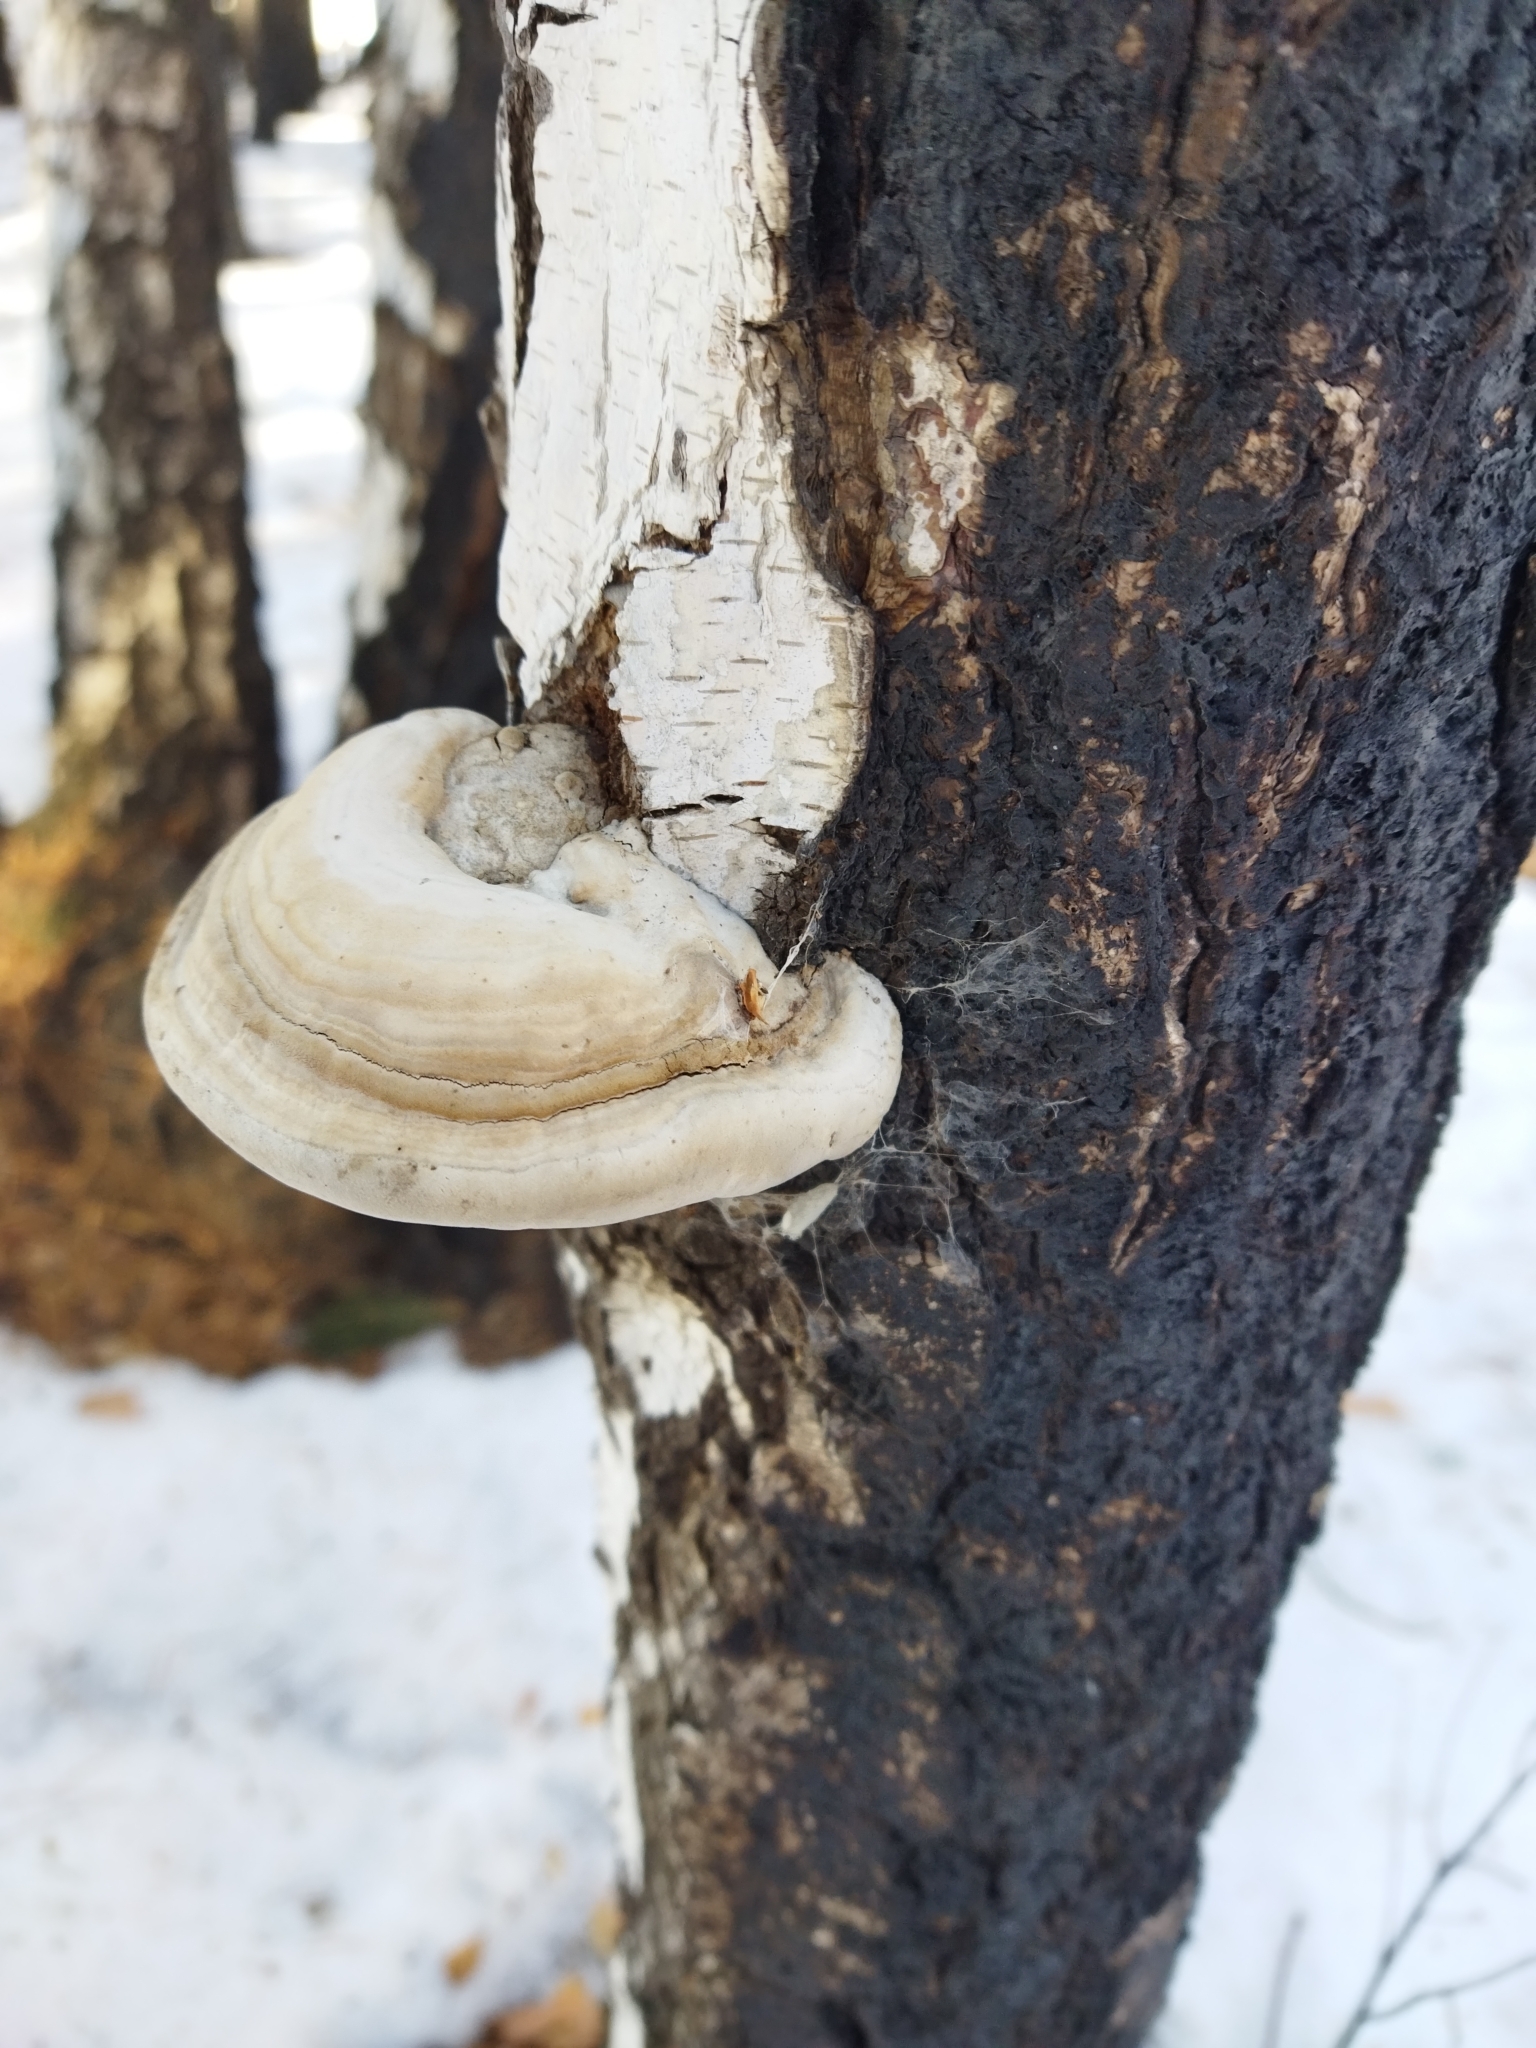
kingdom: Fungi
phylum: Basidiomycota
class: Agaricomycetes
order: Polyporales
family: Polyporaceae
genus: Fomes
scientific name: Fomes fomentarius
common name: Hoof fungus
